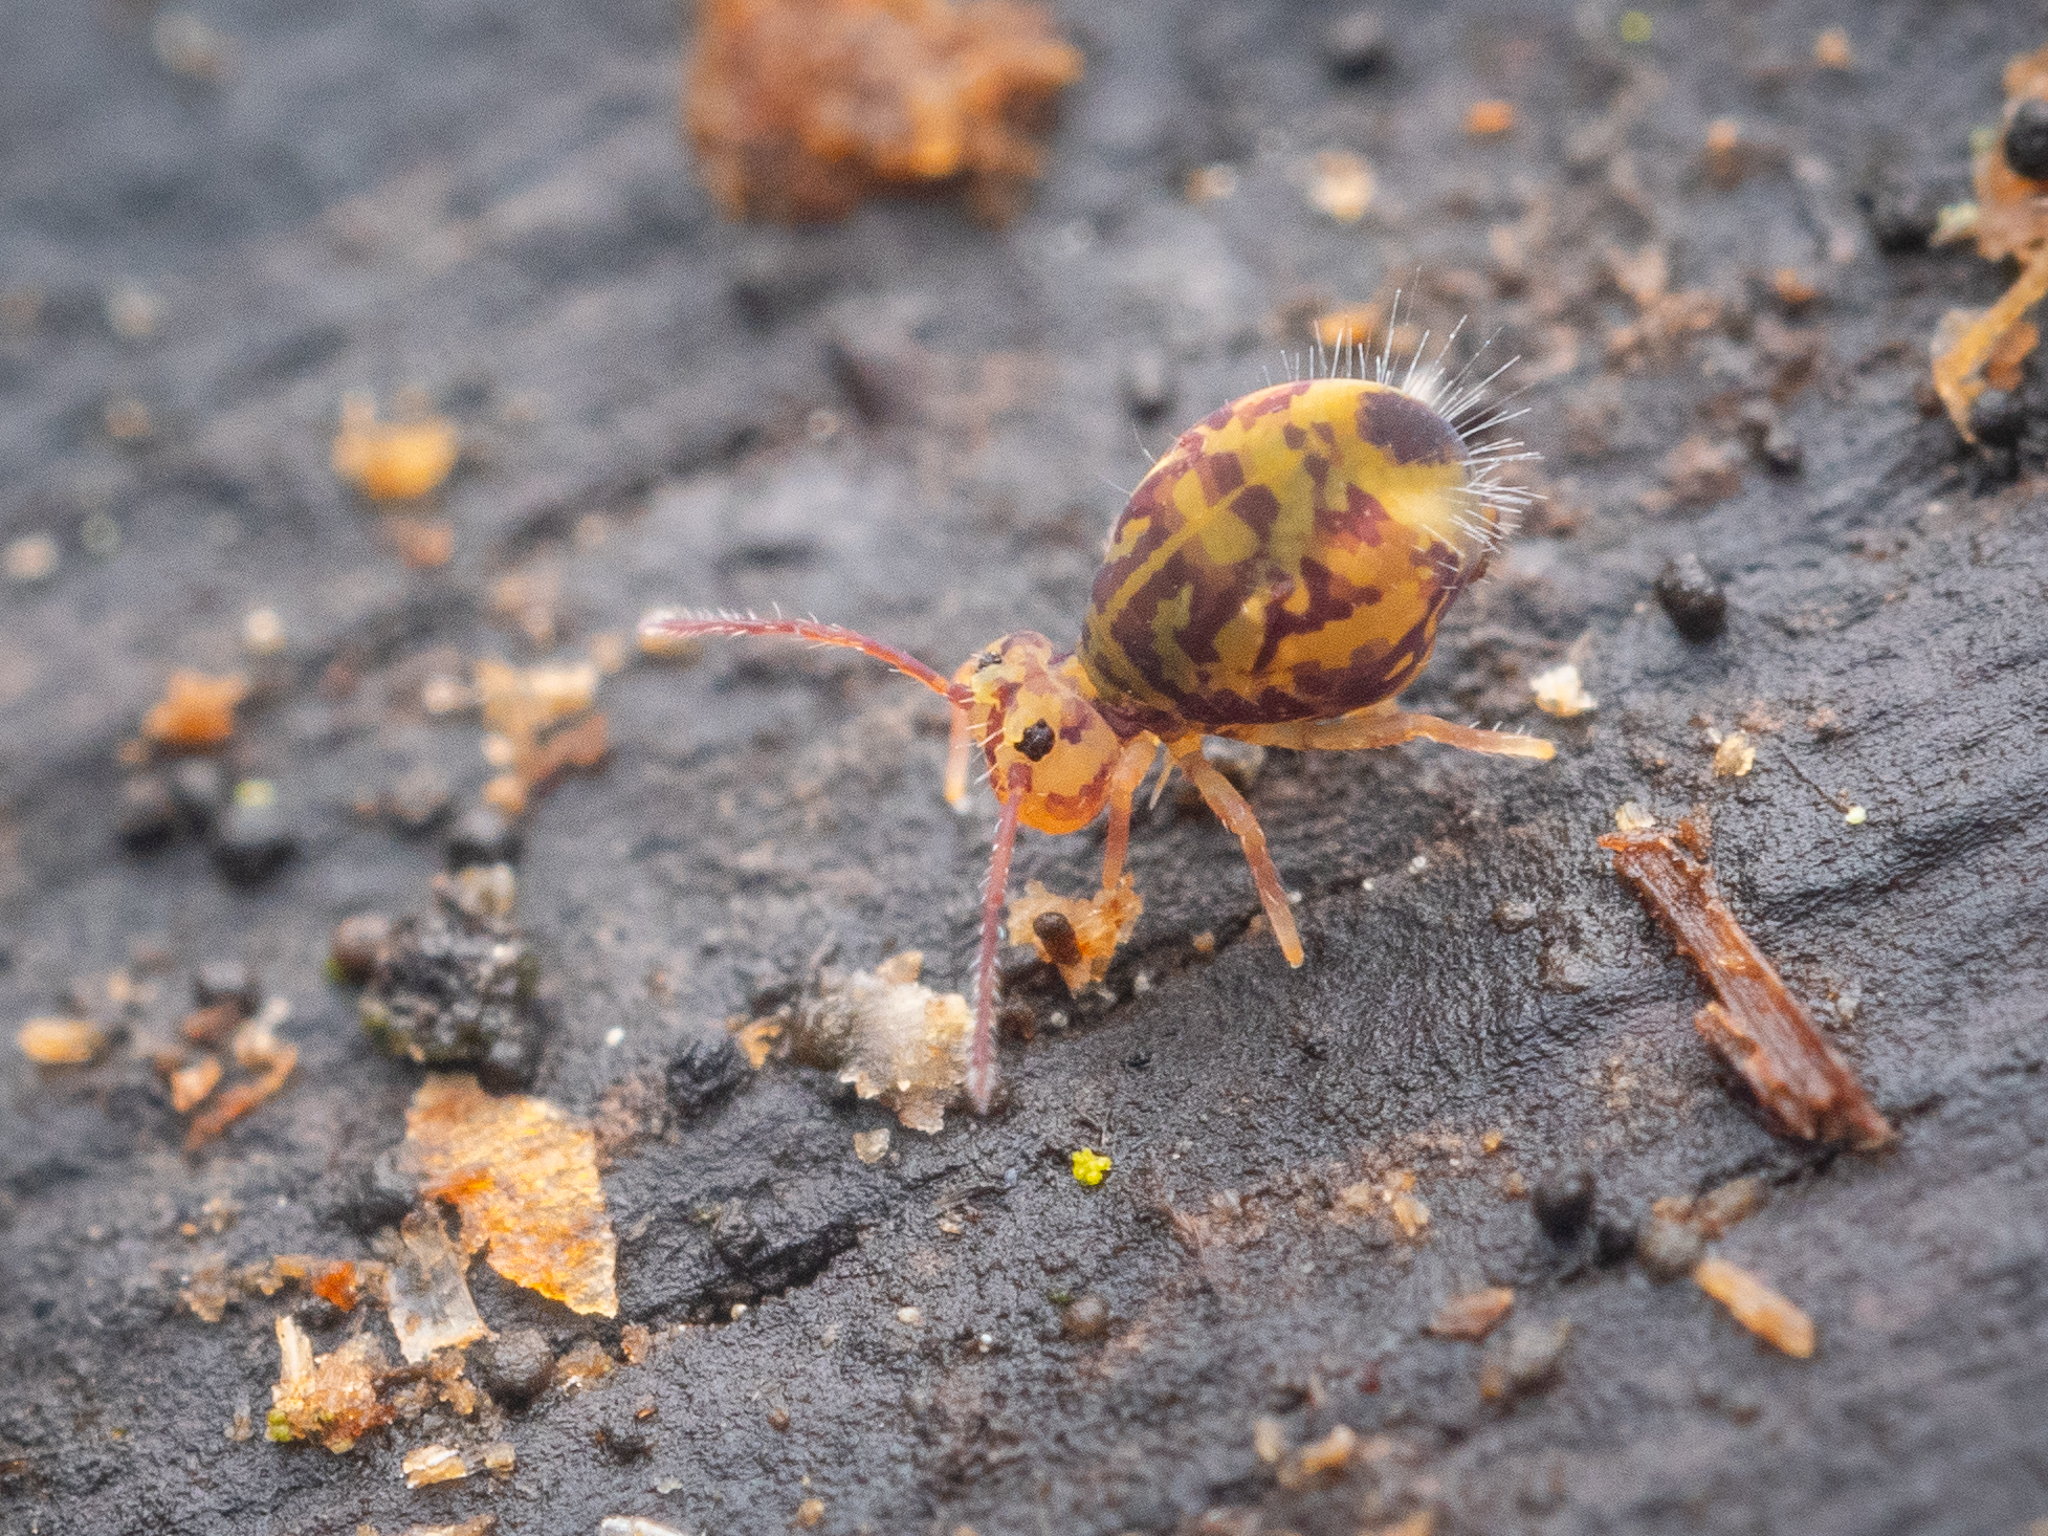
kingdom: Animalia
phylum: Arthropoda
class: Collembola
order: Symphypleona
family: Dicyrtomidae
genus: Dicyrtomina
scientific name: Dicyrtomina ornata
